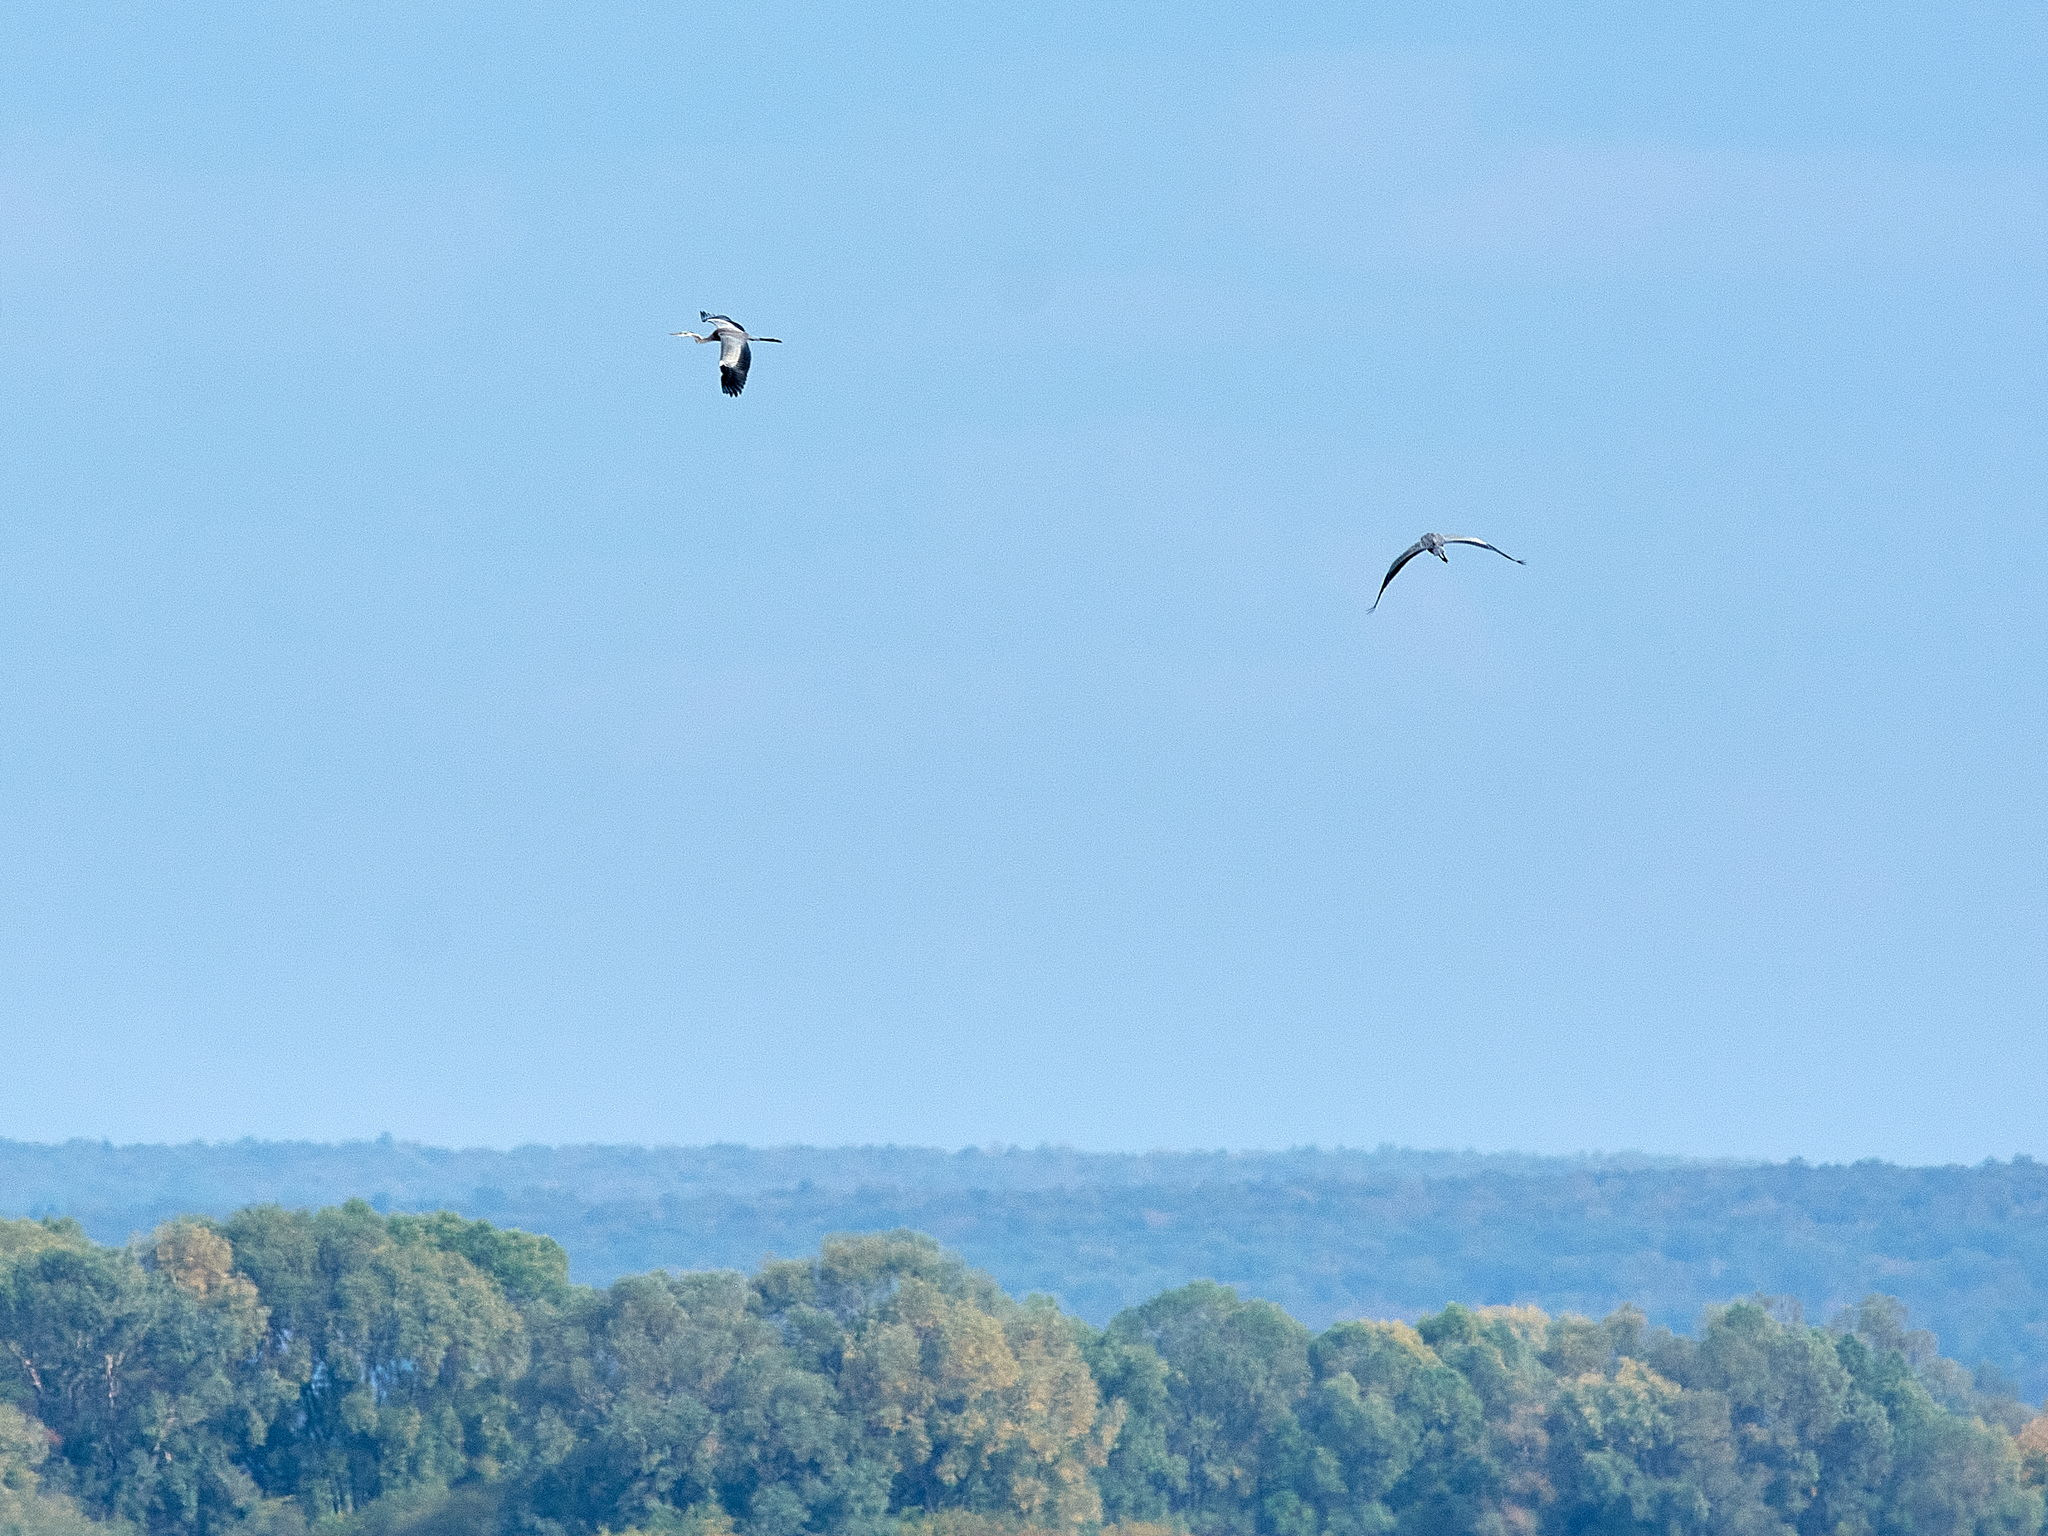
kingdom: Animalia
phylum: Chordata
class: Aves
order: Pelecaniformes
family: Ardeidae
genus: Ardea
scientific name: Ardea cinerea
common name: Grey heron
